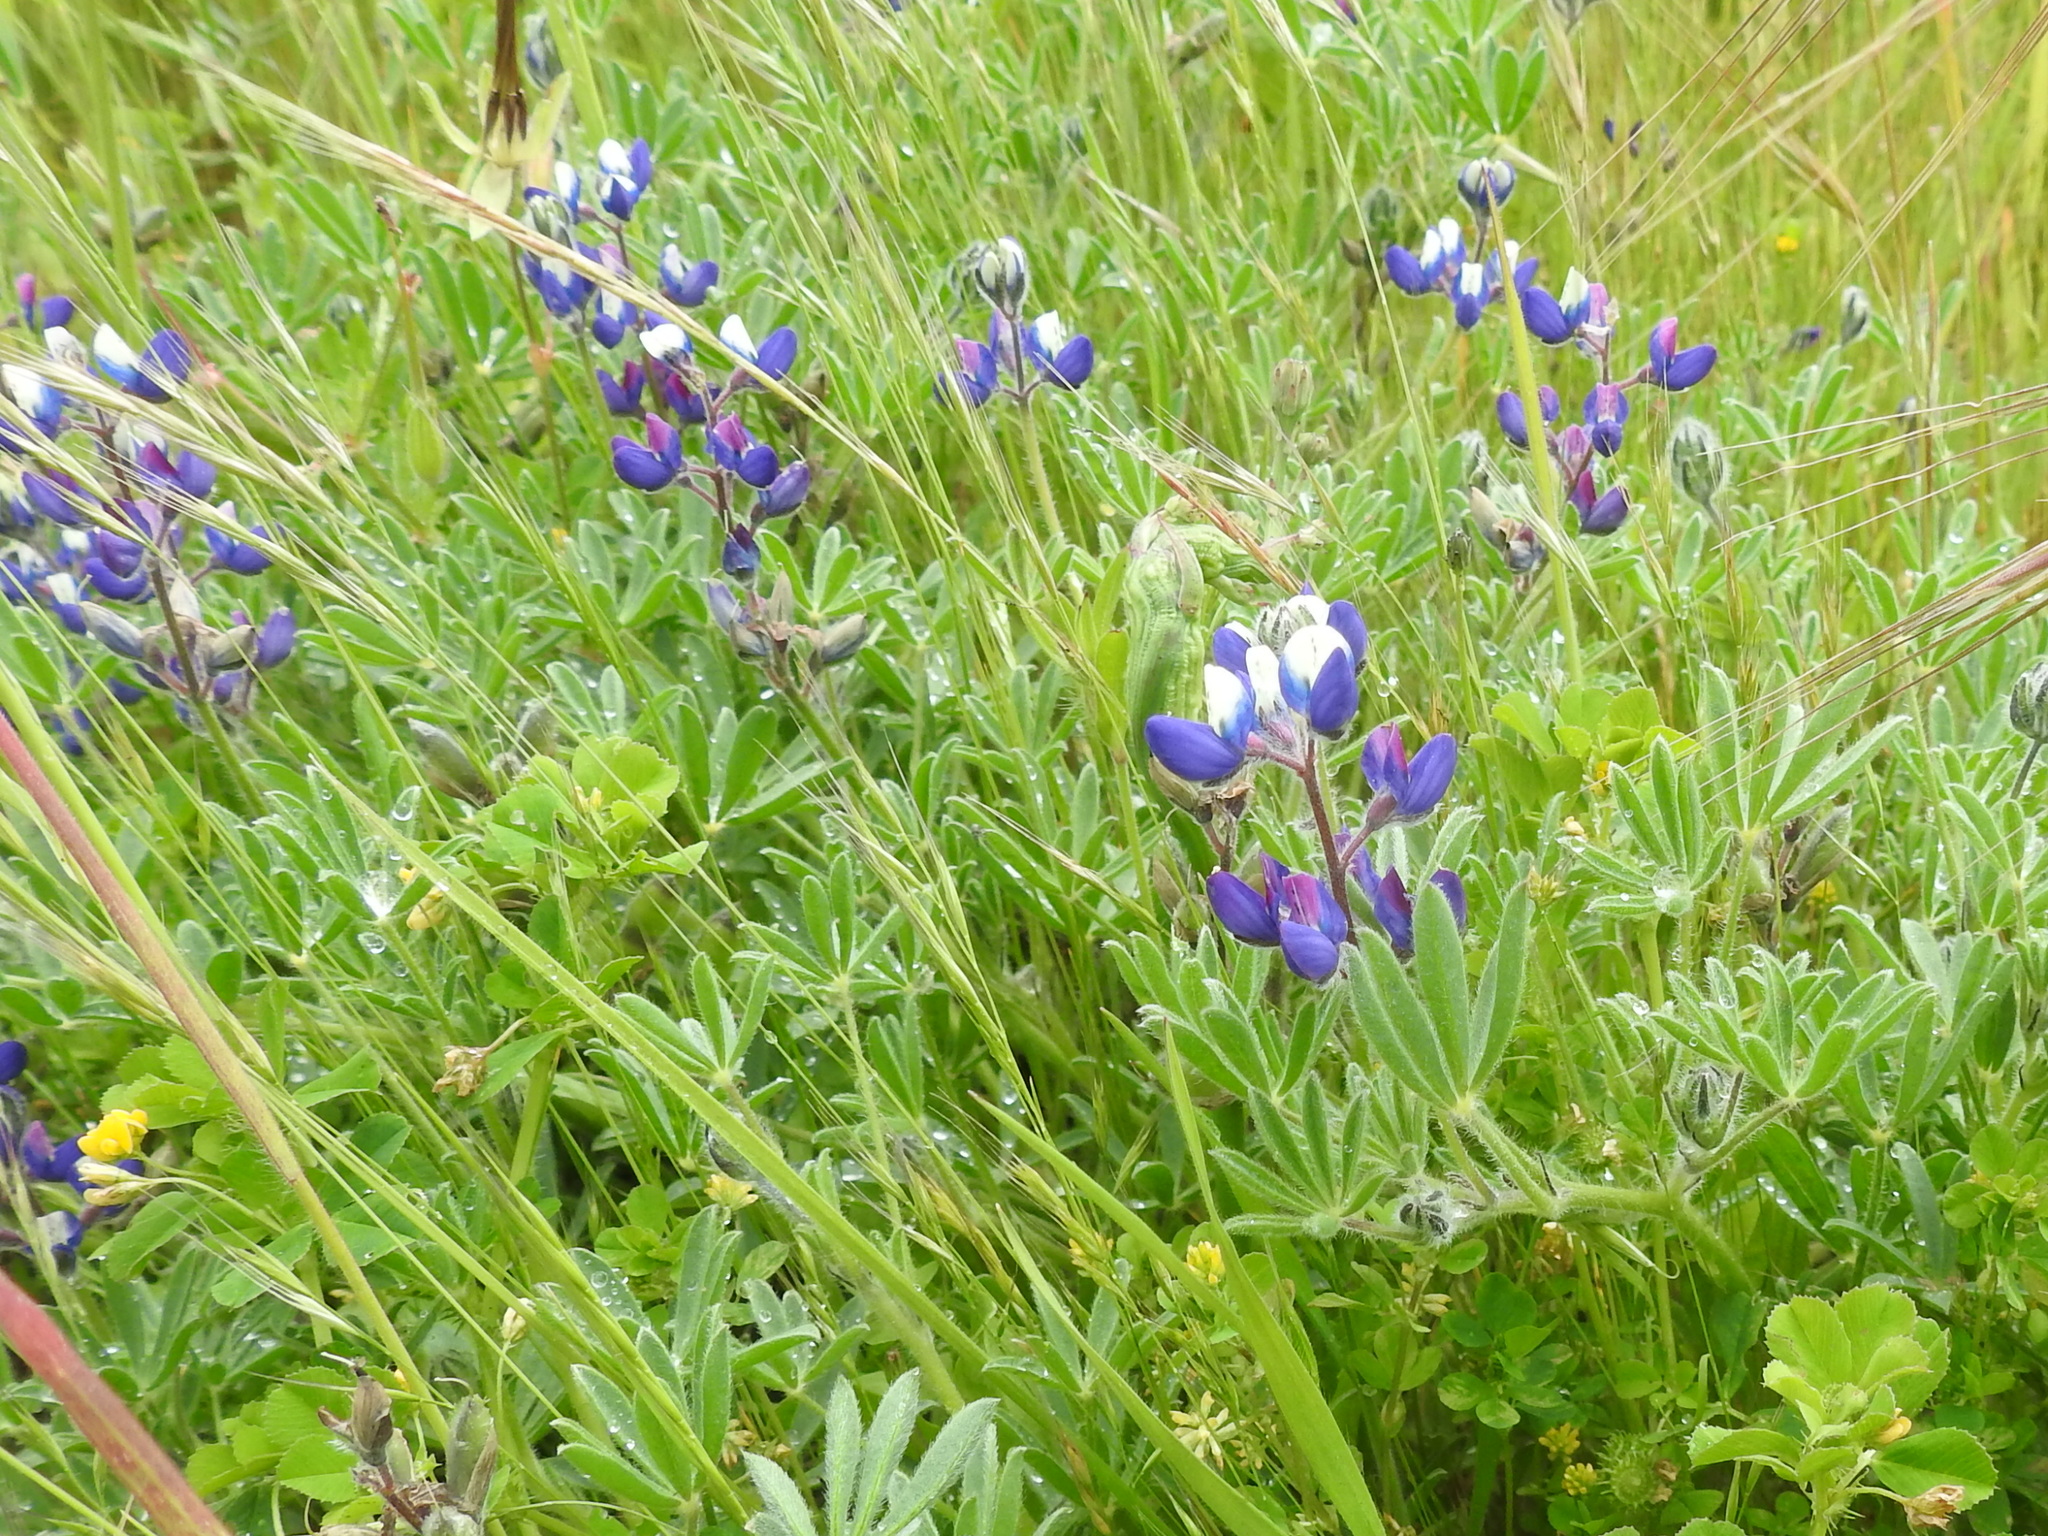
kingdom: Plantae
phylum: Tracheophyta
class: Magnoliopsida
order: Fabales
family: Fabaceae
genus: Lupinus
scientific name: Lupinus nanus
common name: Orean blue lupin
